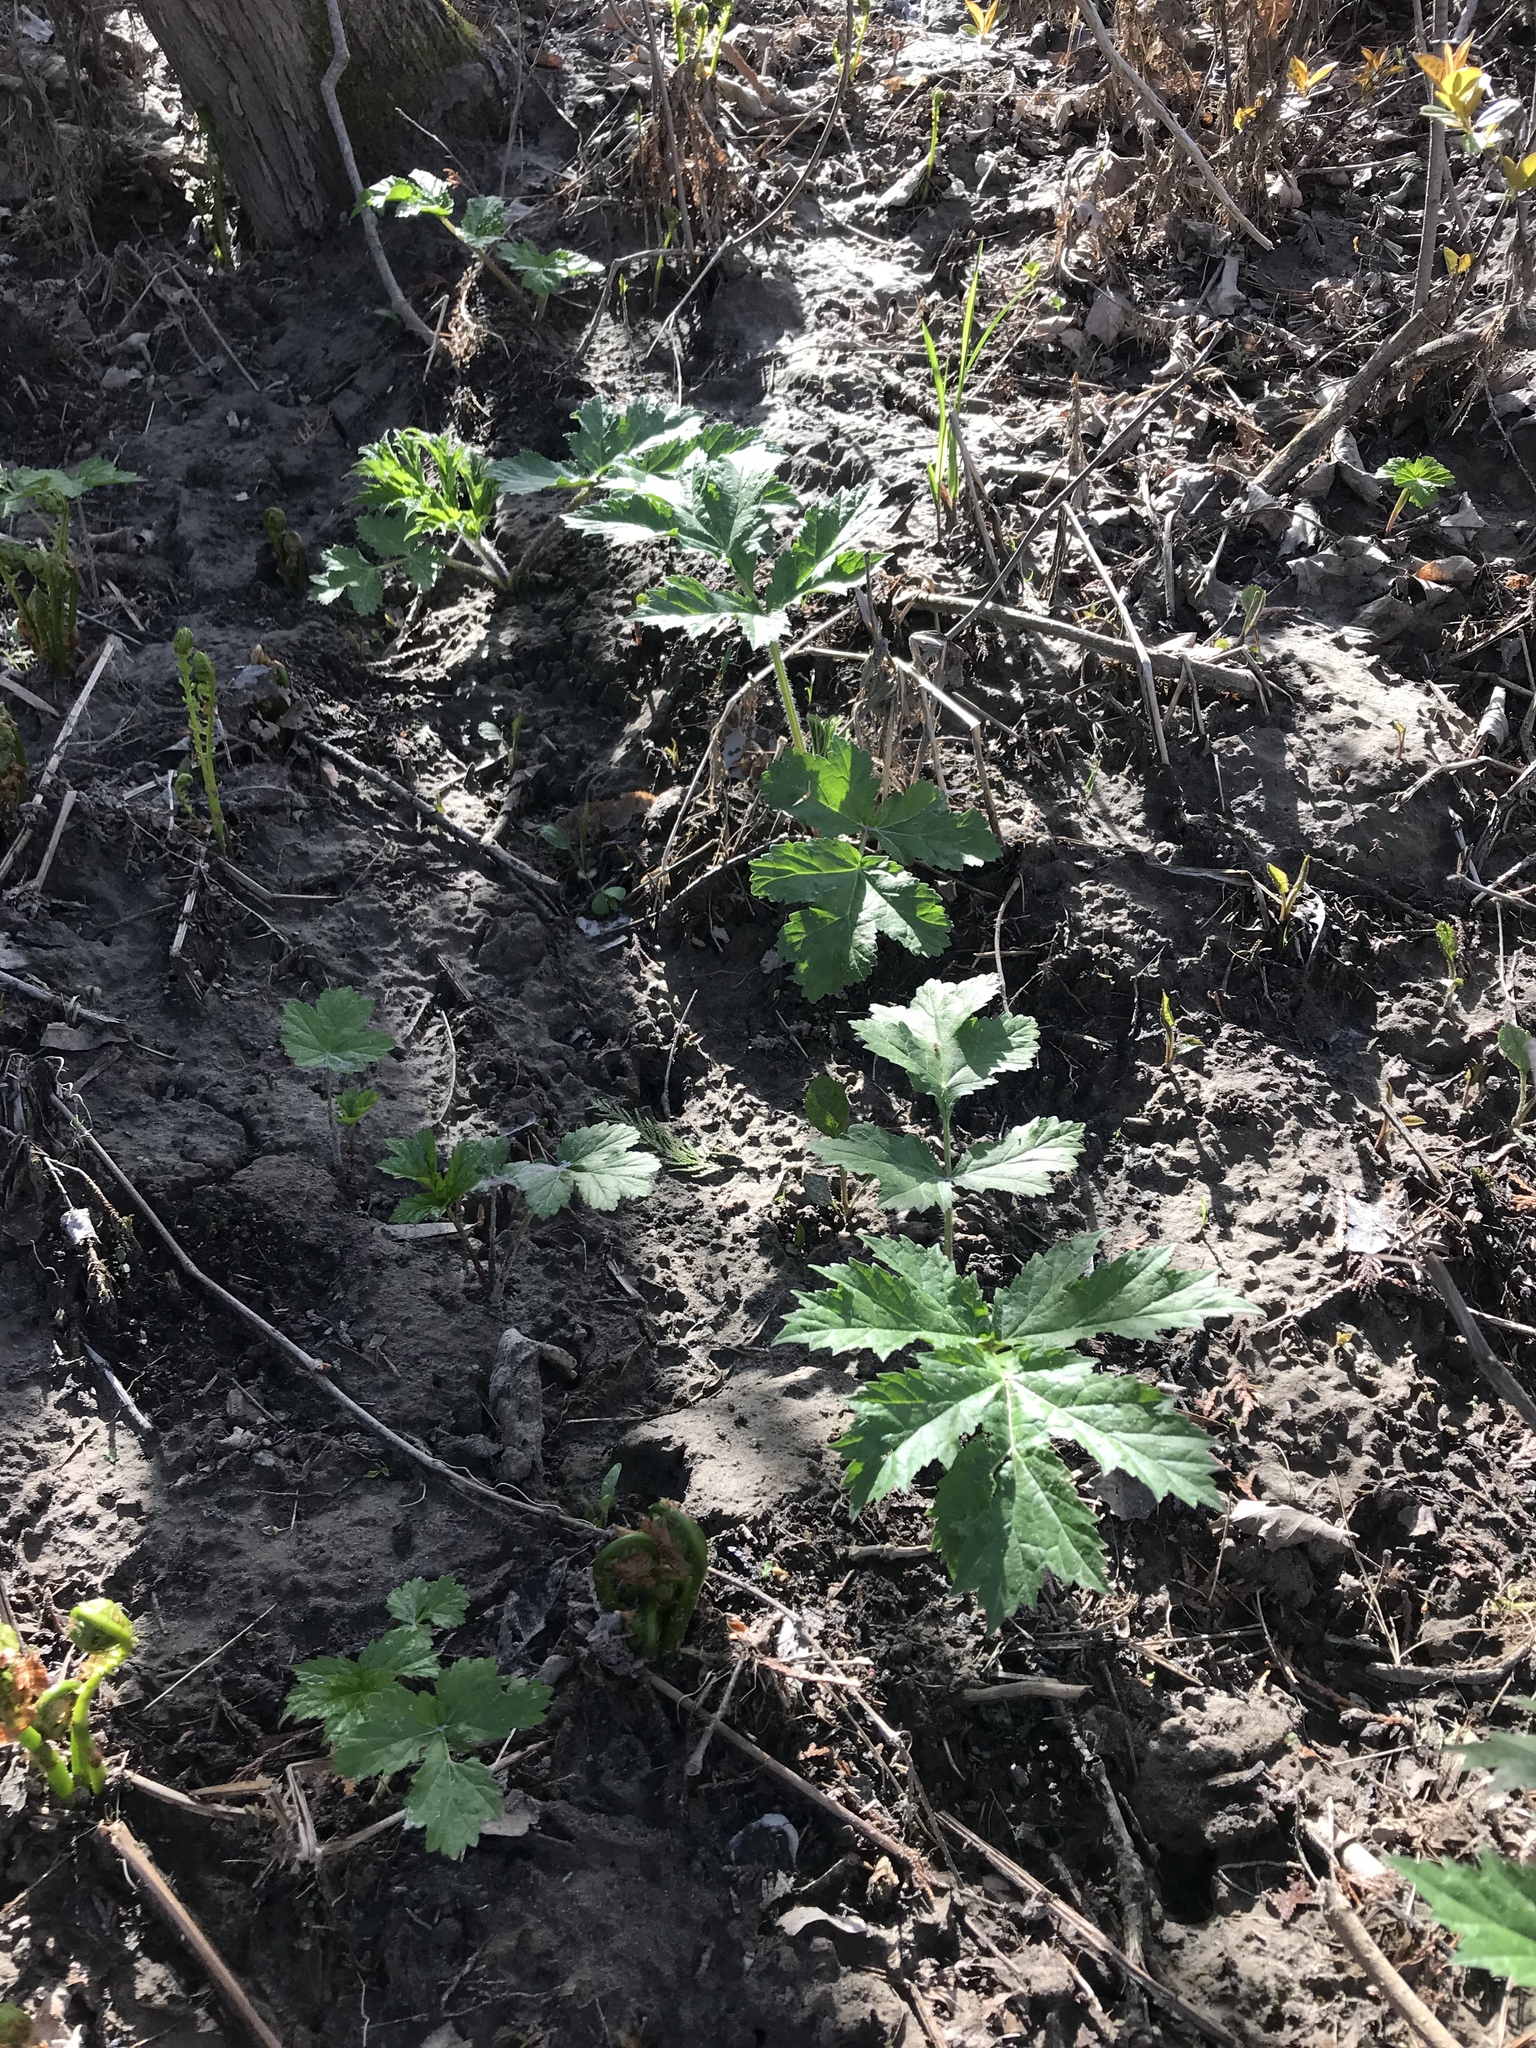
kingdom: Plantae
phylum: Tracheophyta
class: Magnoliopsida
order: Apiales
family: Apiaceae
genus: Heracleum
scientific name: Heracleum mantegazzianum
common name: Giant hogweed
